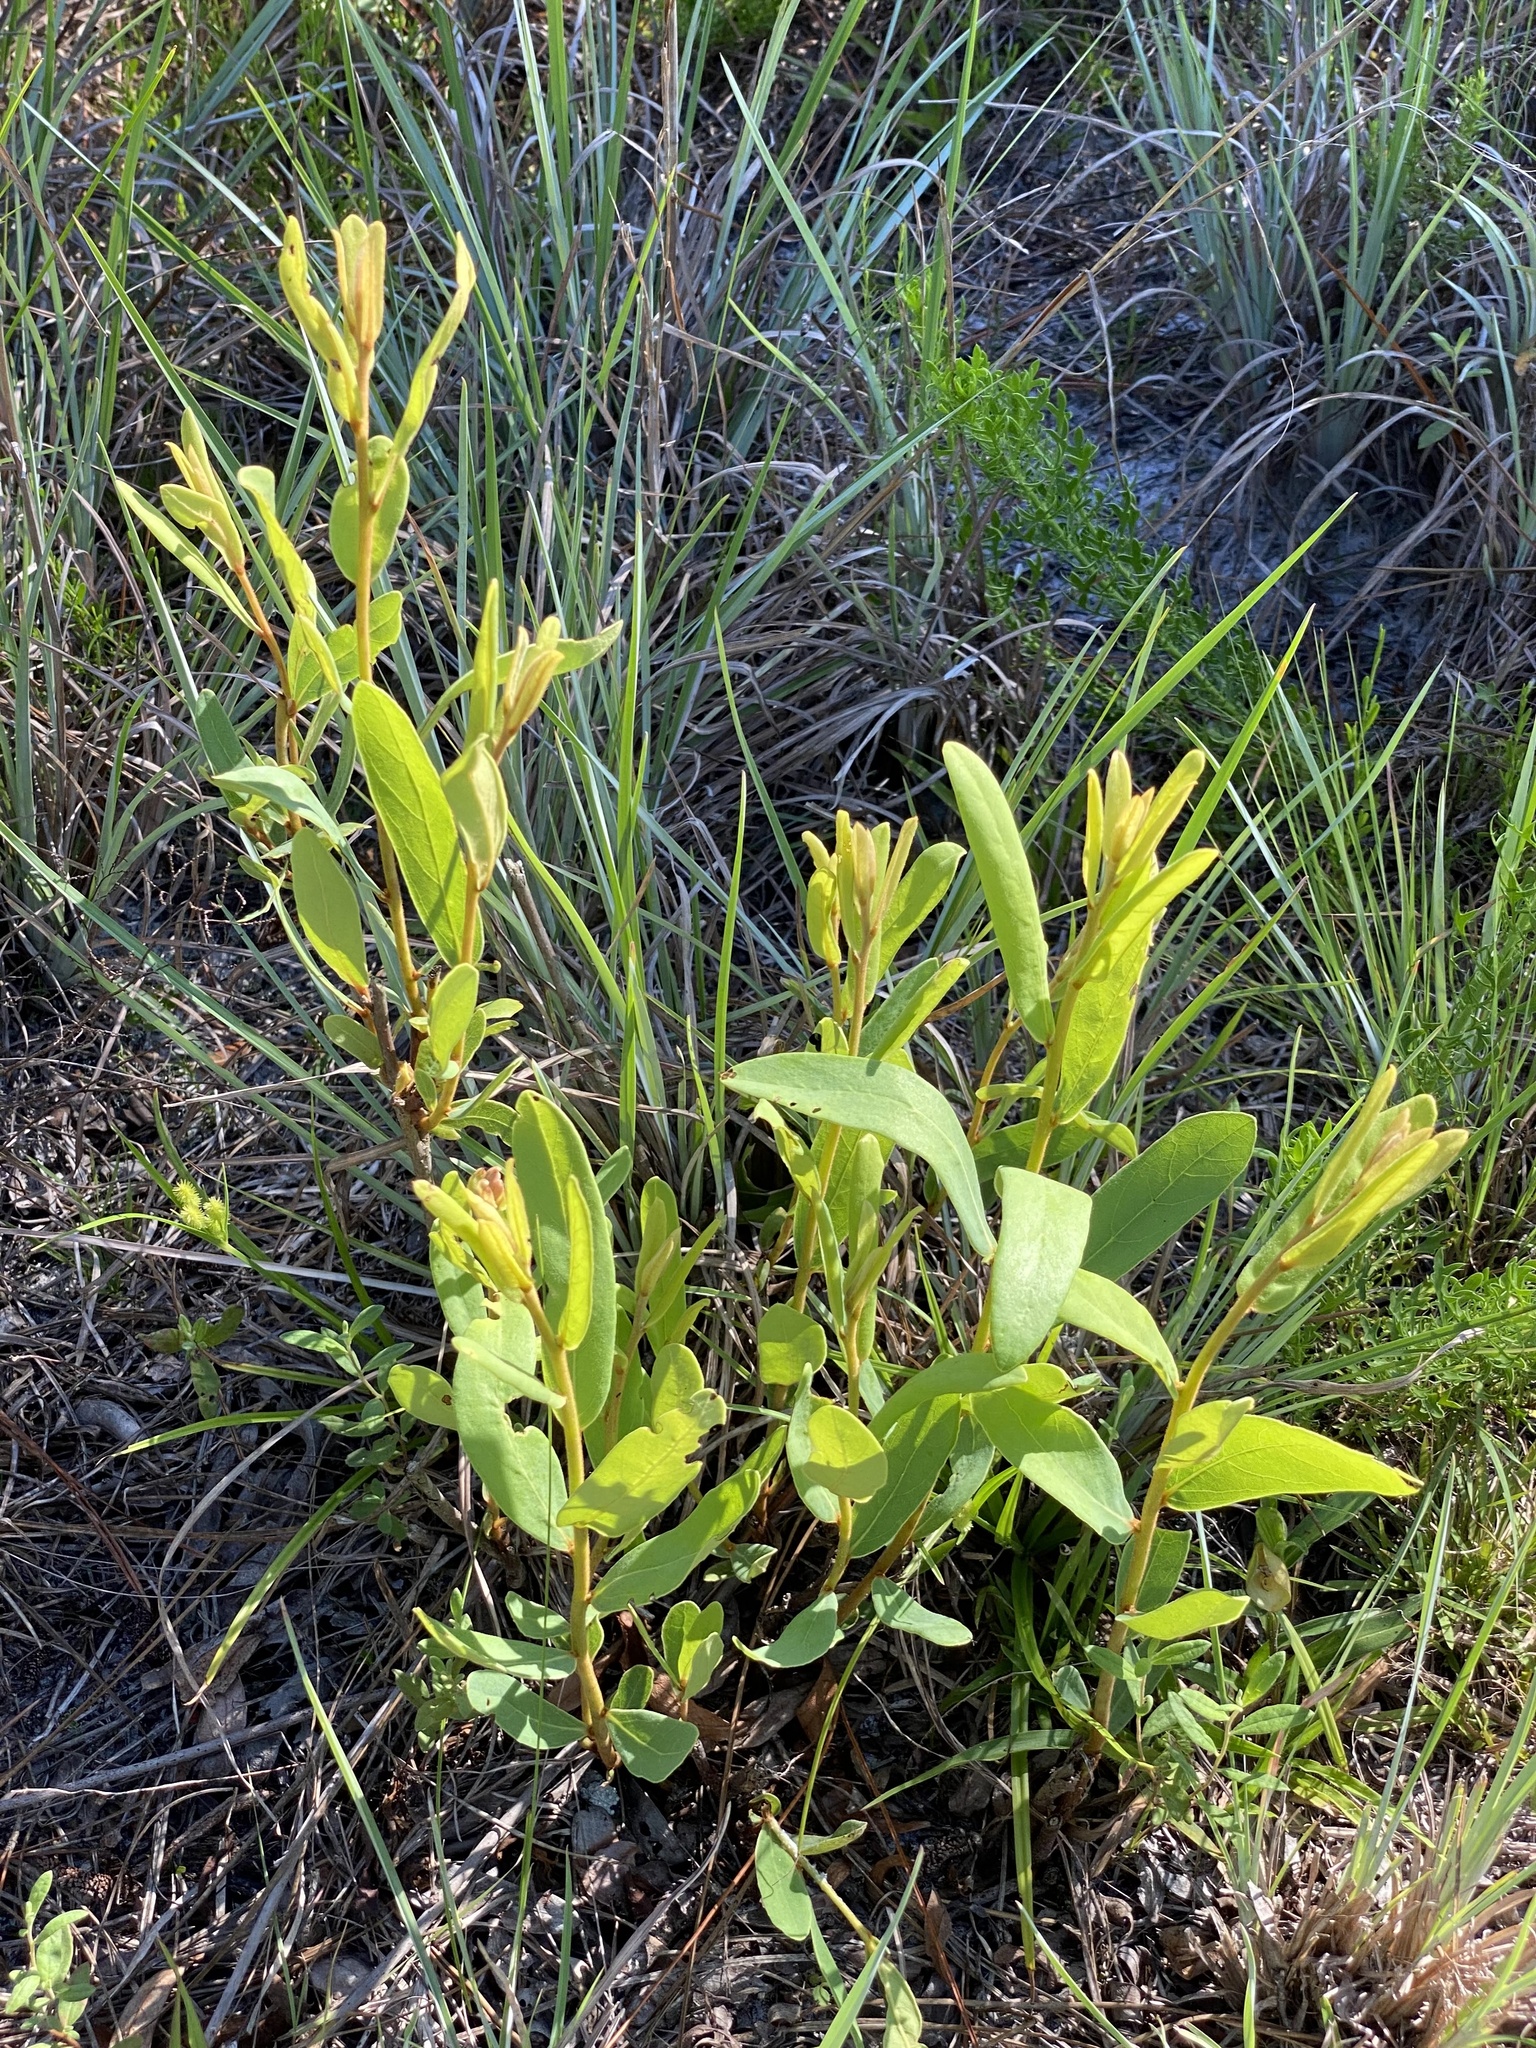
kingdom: Plantae
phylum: Tracheophyta
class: Magnoliopsida
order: Magnoliales
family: Annonaceae
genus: Asimina
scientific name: Asimina reticulata
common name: Flag pawpaw
